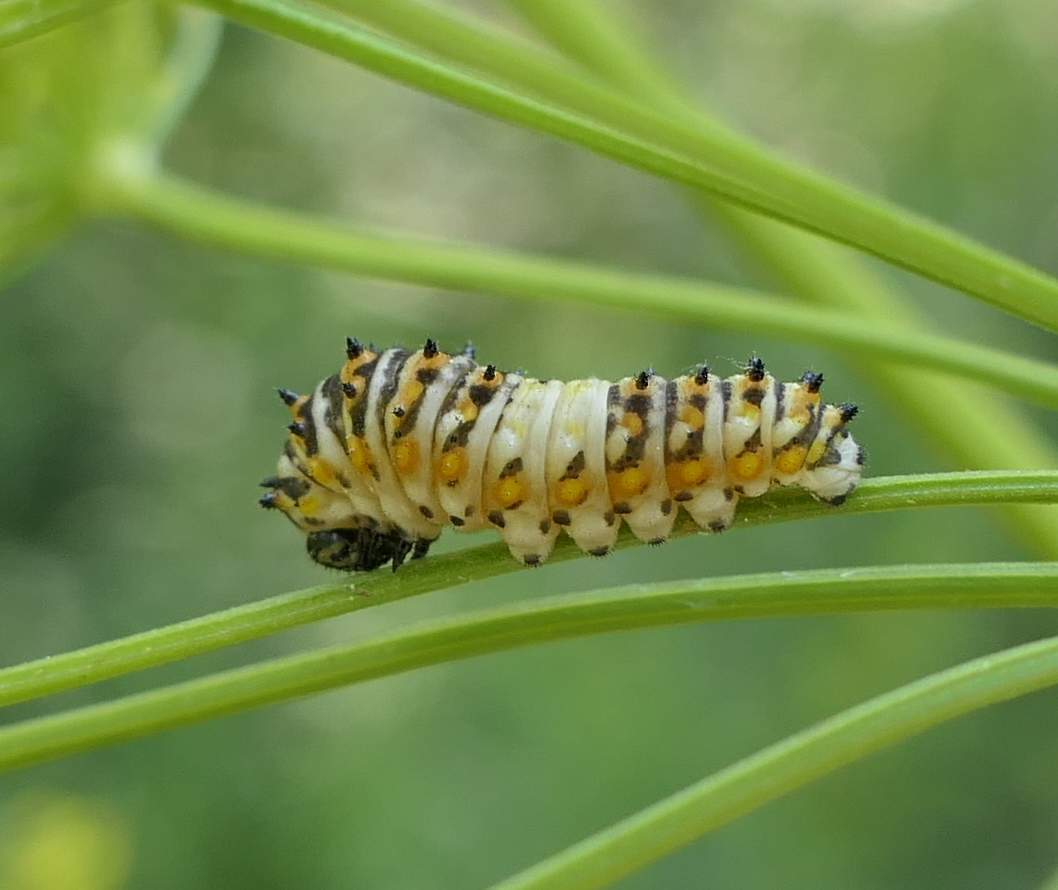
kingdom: Animalia
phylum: Arthropoda
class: Insecta
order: Lepidoptera
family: Papilionidae
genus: Papilio
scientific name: Papilio polyxenes
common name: Black swallowtail
